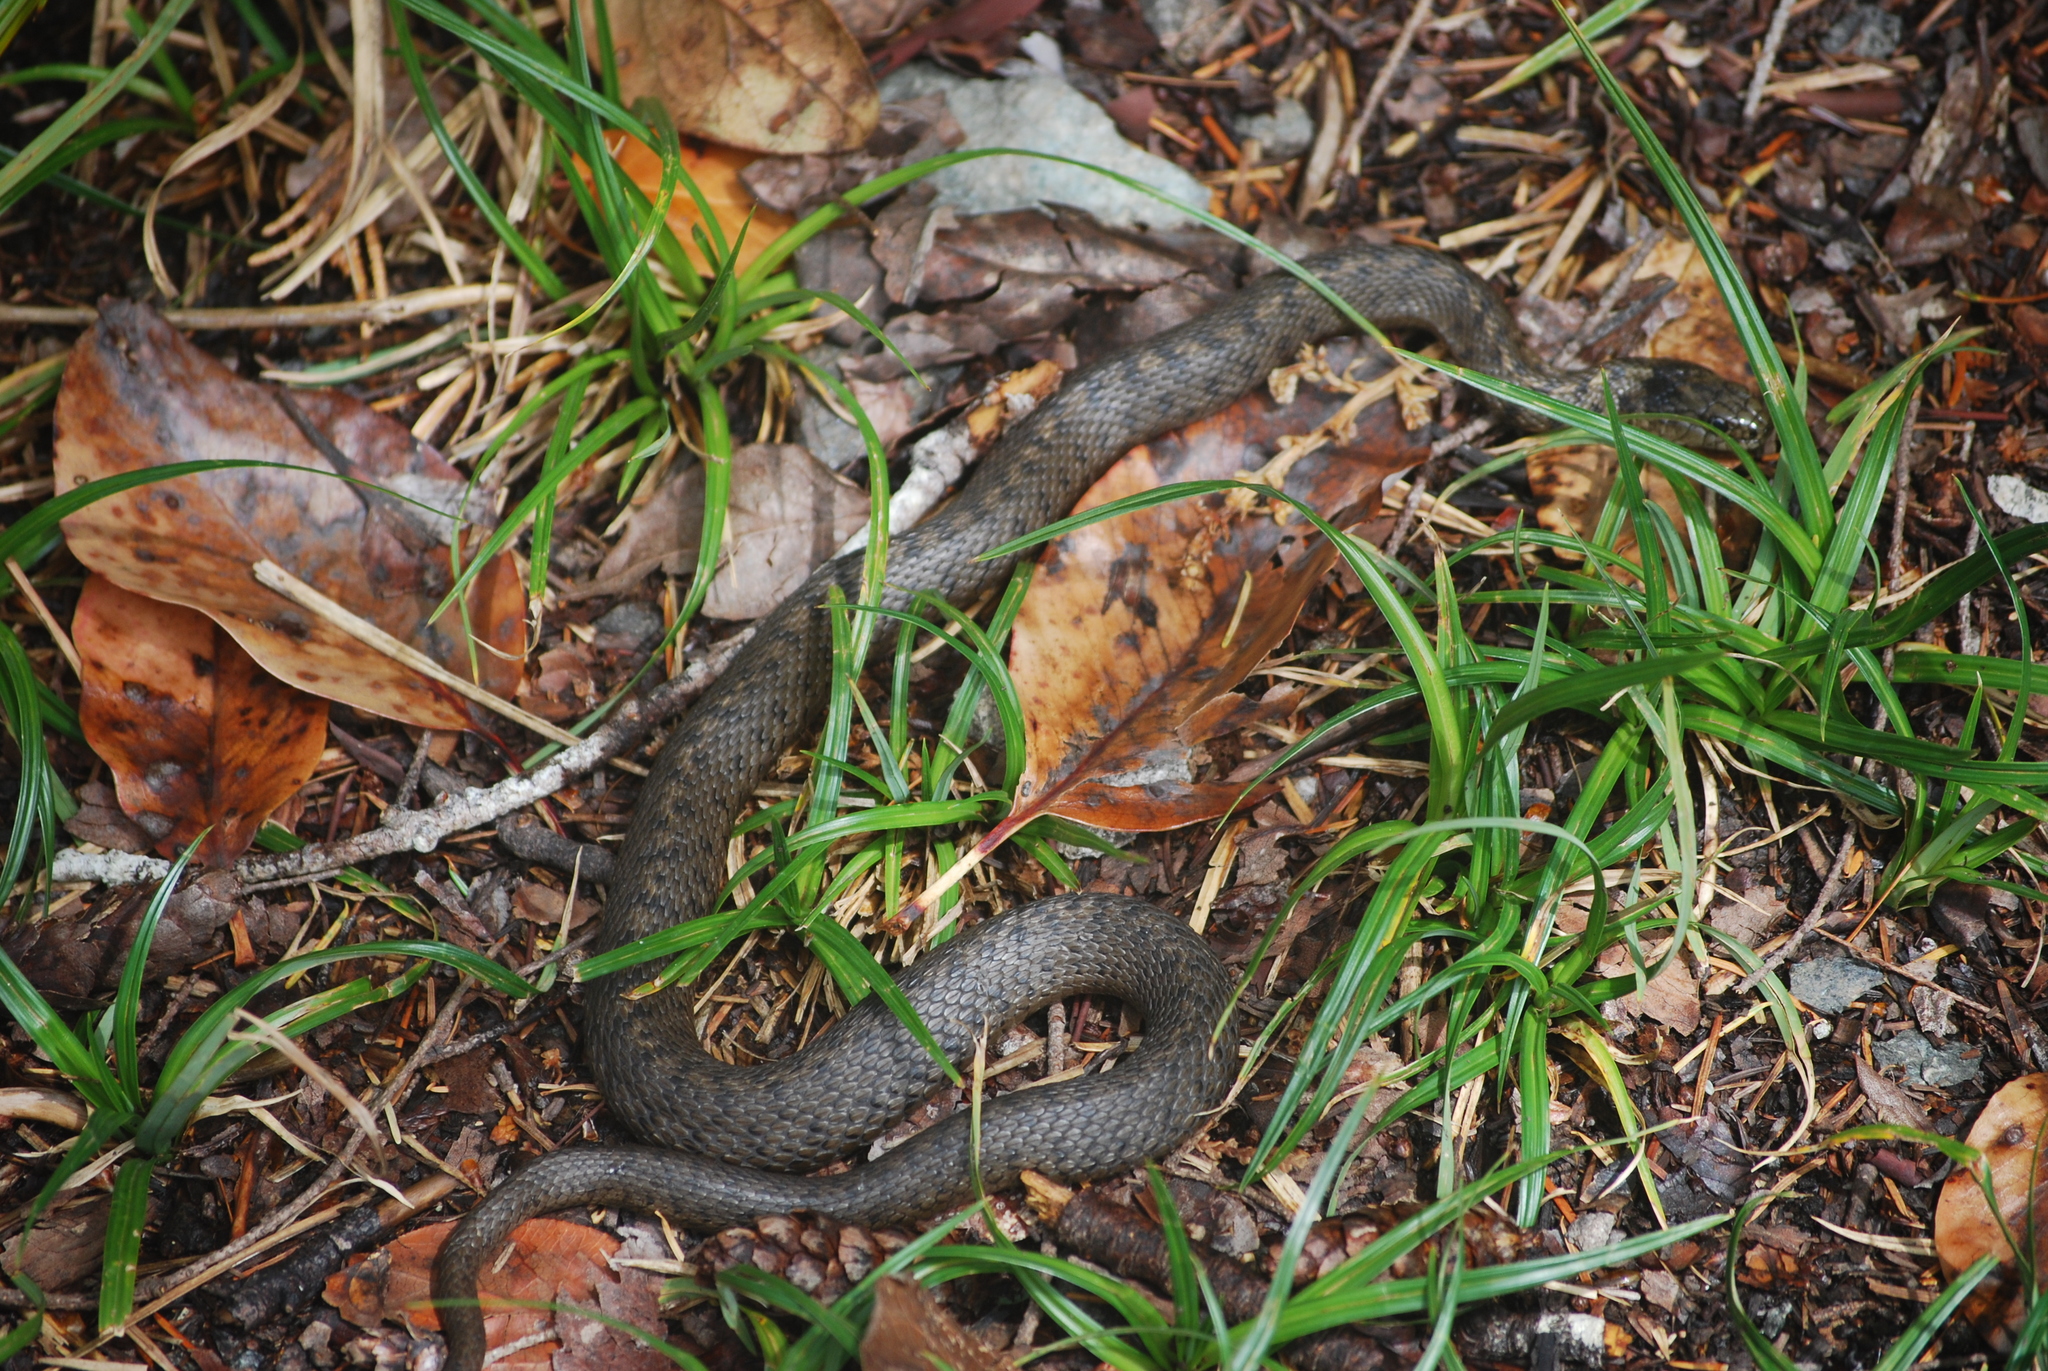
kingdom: Animalia
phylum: Chordata
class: Squamata
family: Colubridae
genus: Thamnophis
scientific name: Thamnophis ordinoides
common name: Northwestern garter snake
